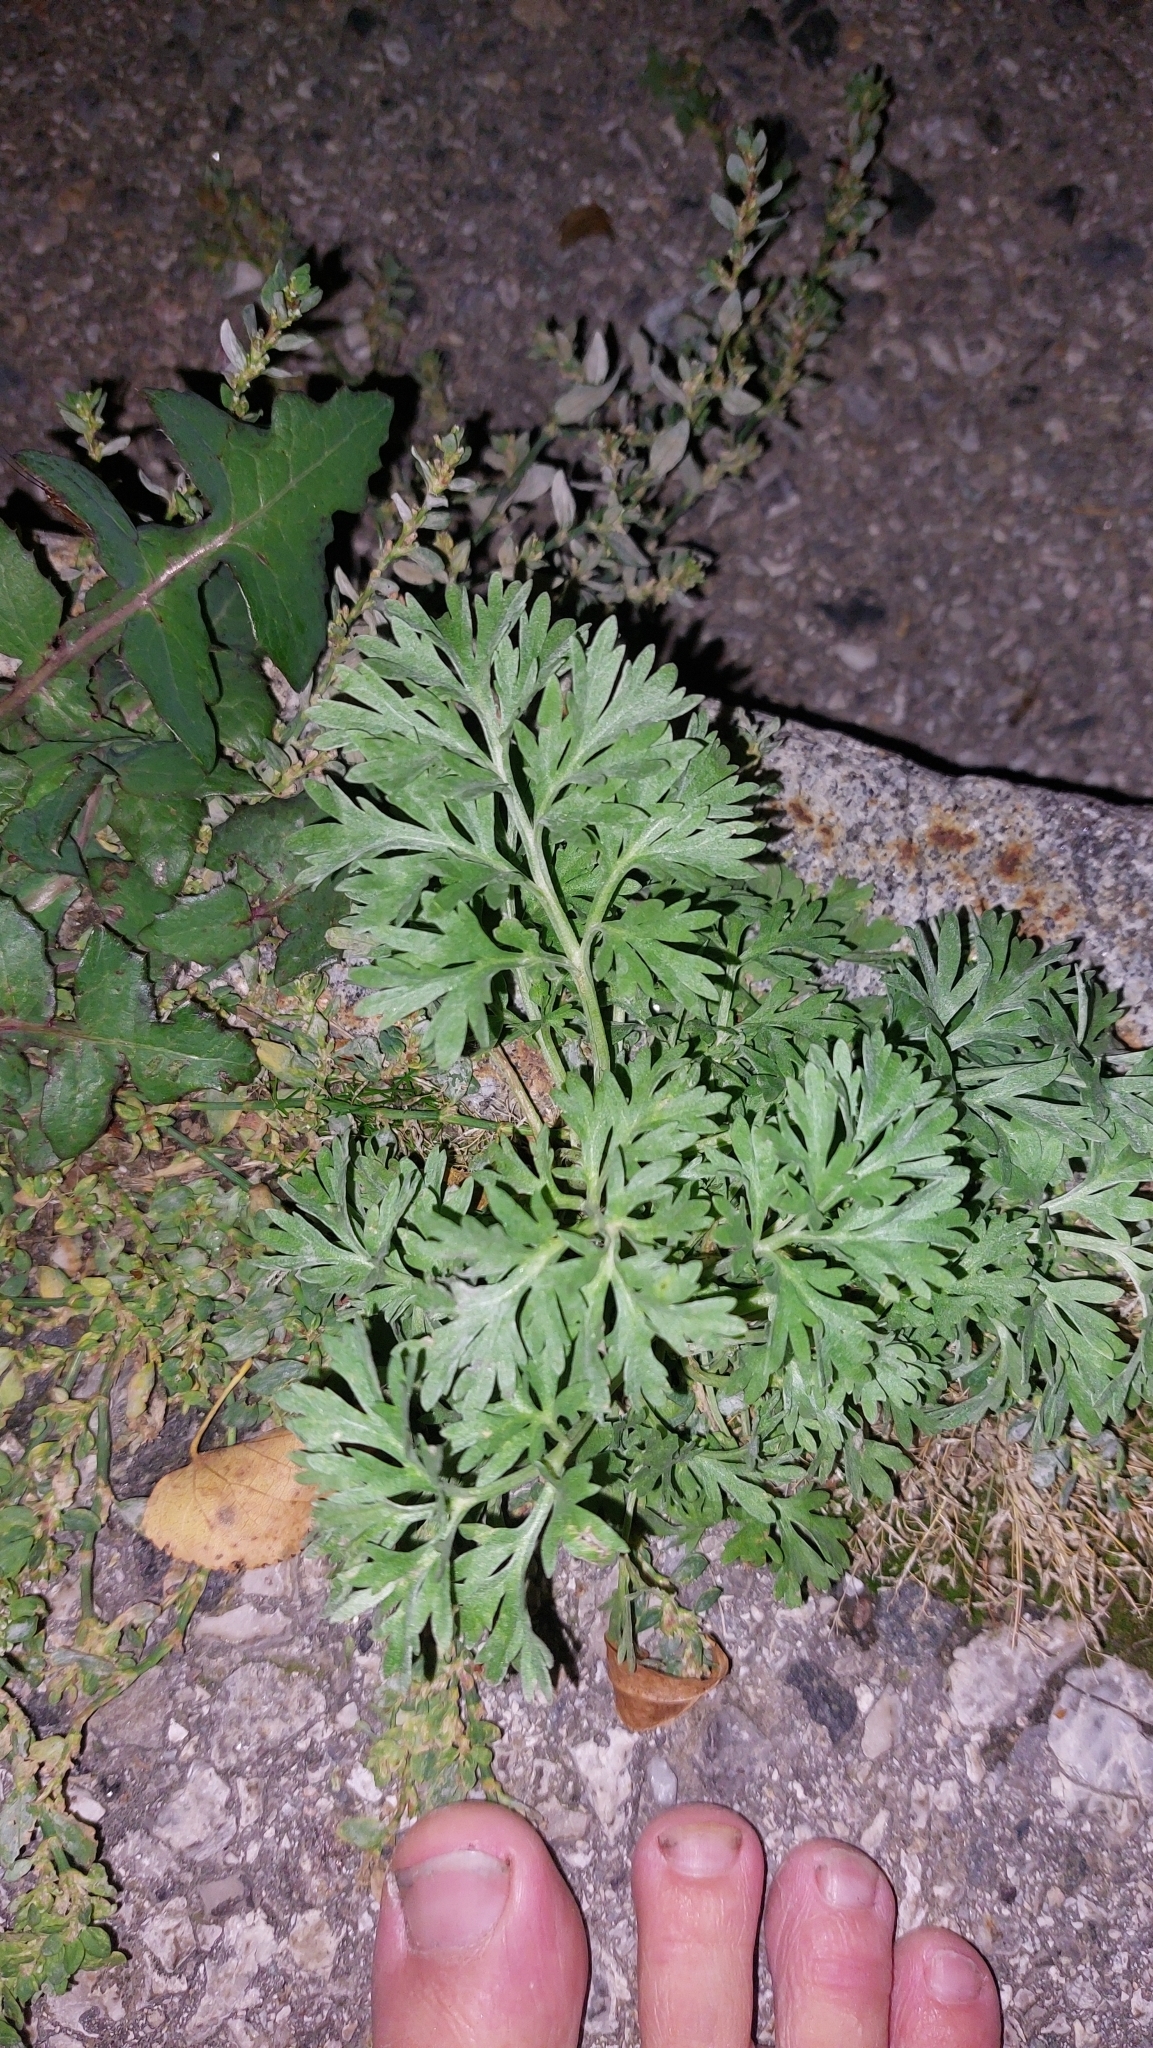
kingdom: Plantae
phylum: Tracheophyta
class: Magnoliopsida
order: Asterales
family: Asteraceae
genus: Artemisia
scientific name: Artemisia absinthium
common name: Wormwood
